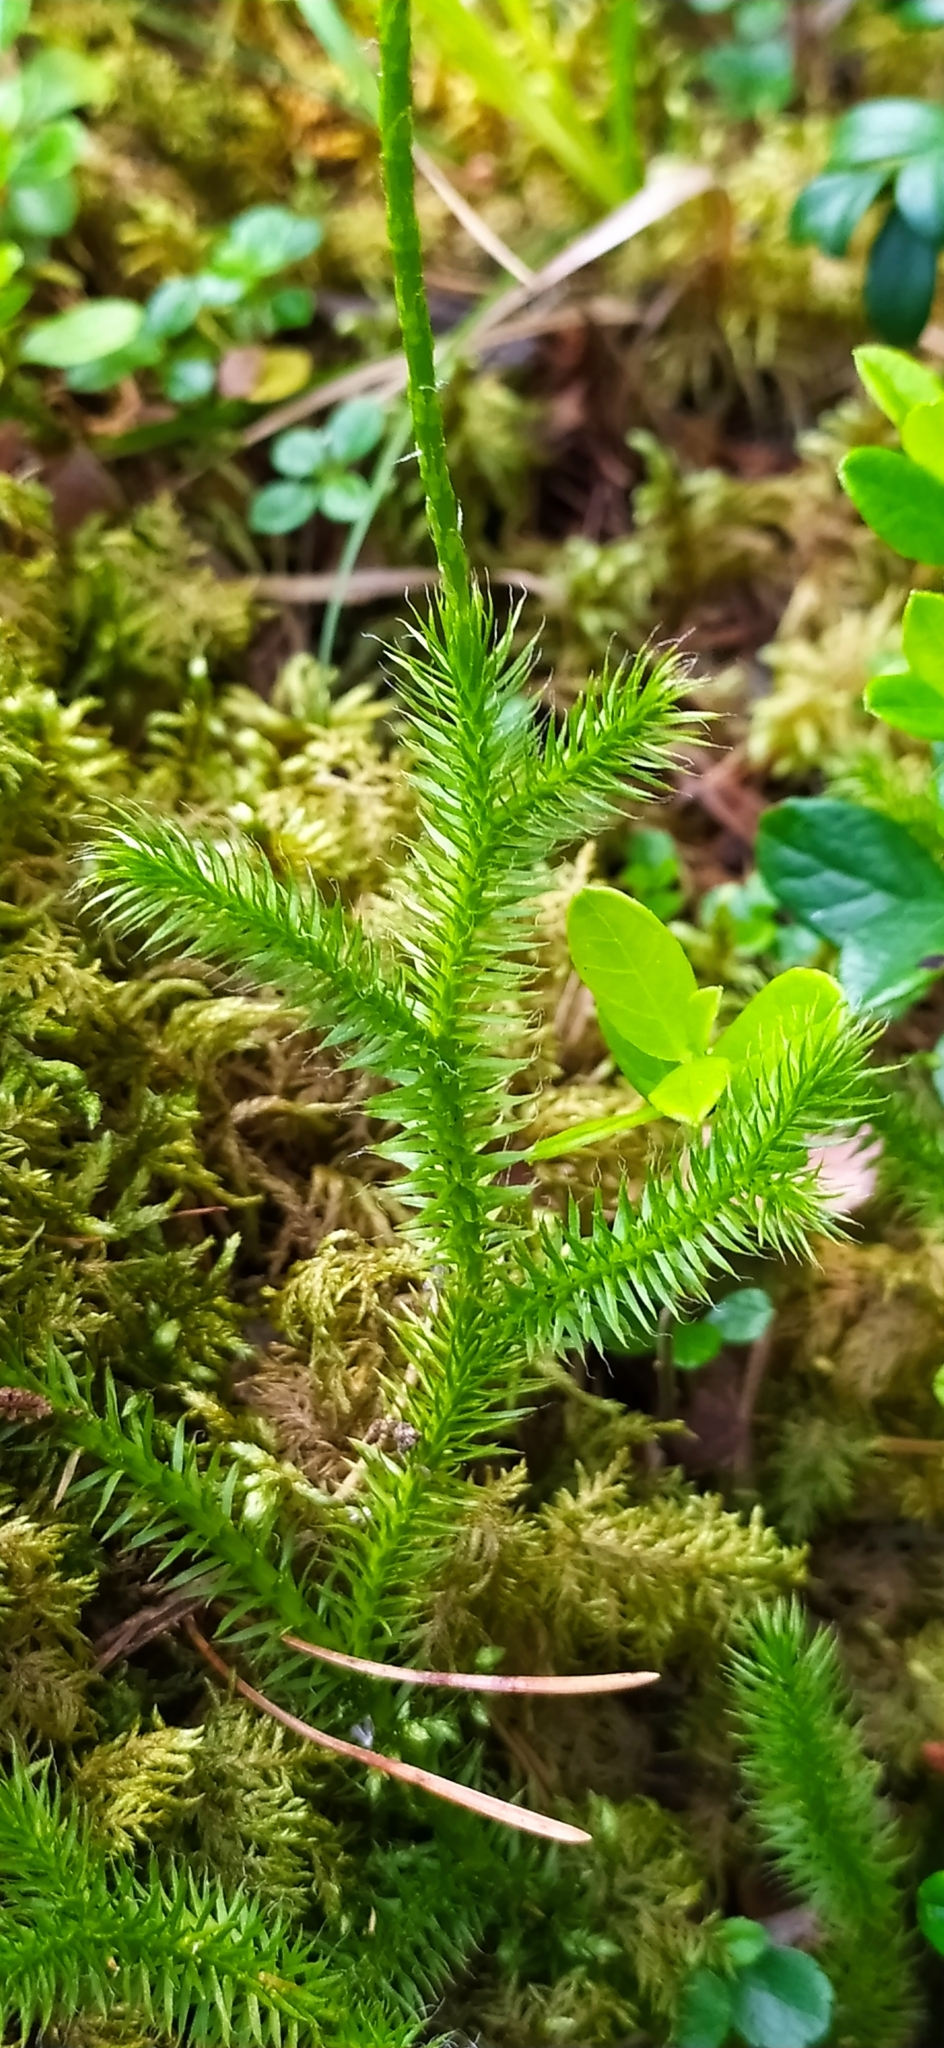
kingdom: Plantae
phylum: Tracheophyta
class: Lycopodiopsida
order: Lycopodiales
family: Lycopodiaceae
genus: Lycopodium
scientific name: Lycopodium clavatum
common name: Stag's-horn clubmoss
